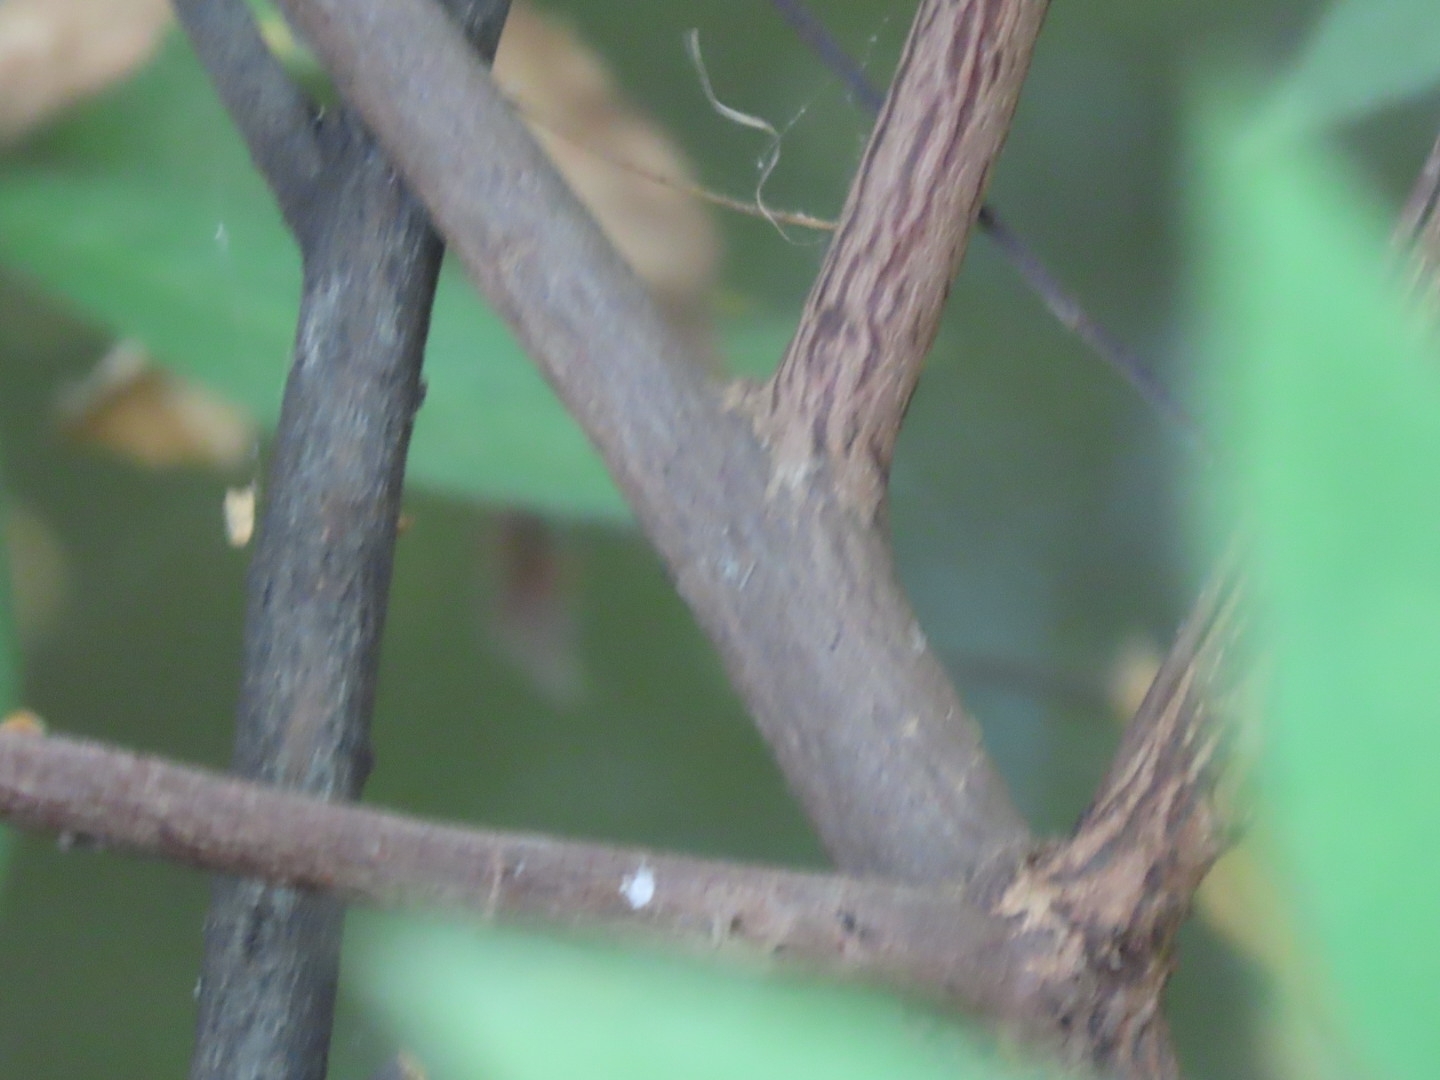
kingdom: Plantae
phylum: Tracheophyta
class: Magnoliopsida
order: Gentianales
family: Rubiaceae
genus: Rogiera
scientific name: Rogiera amoena
